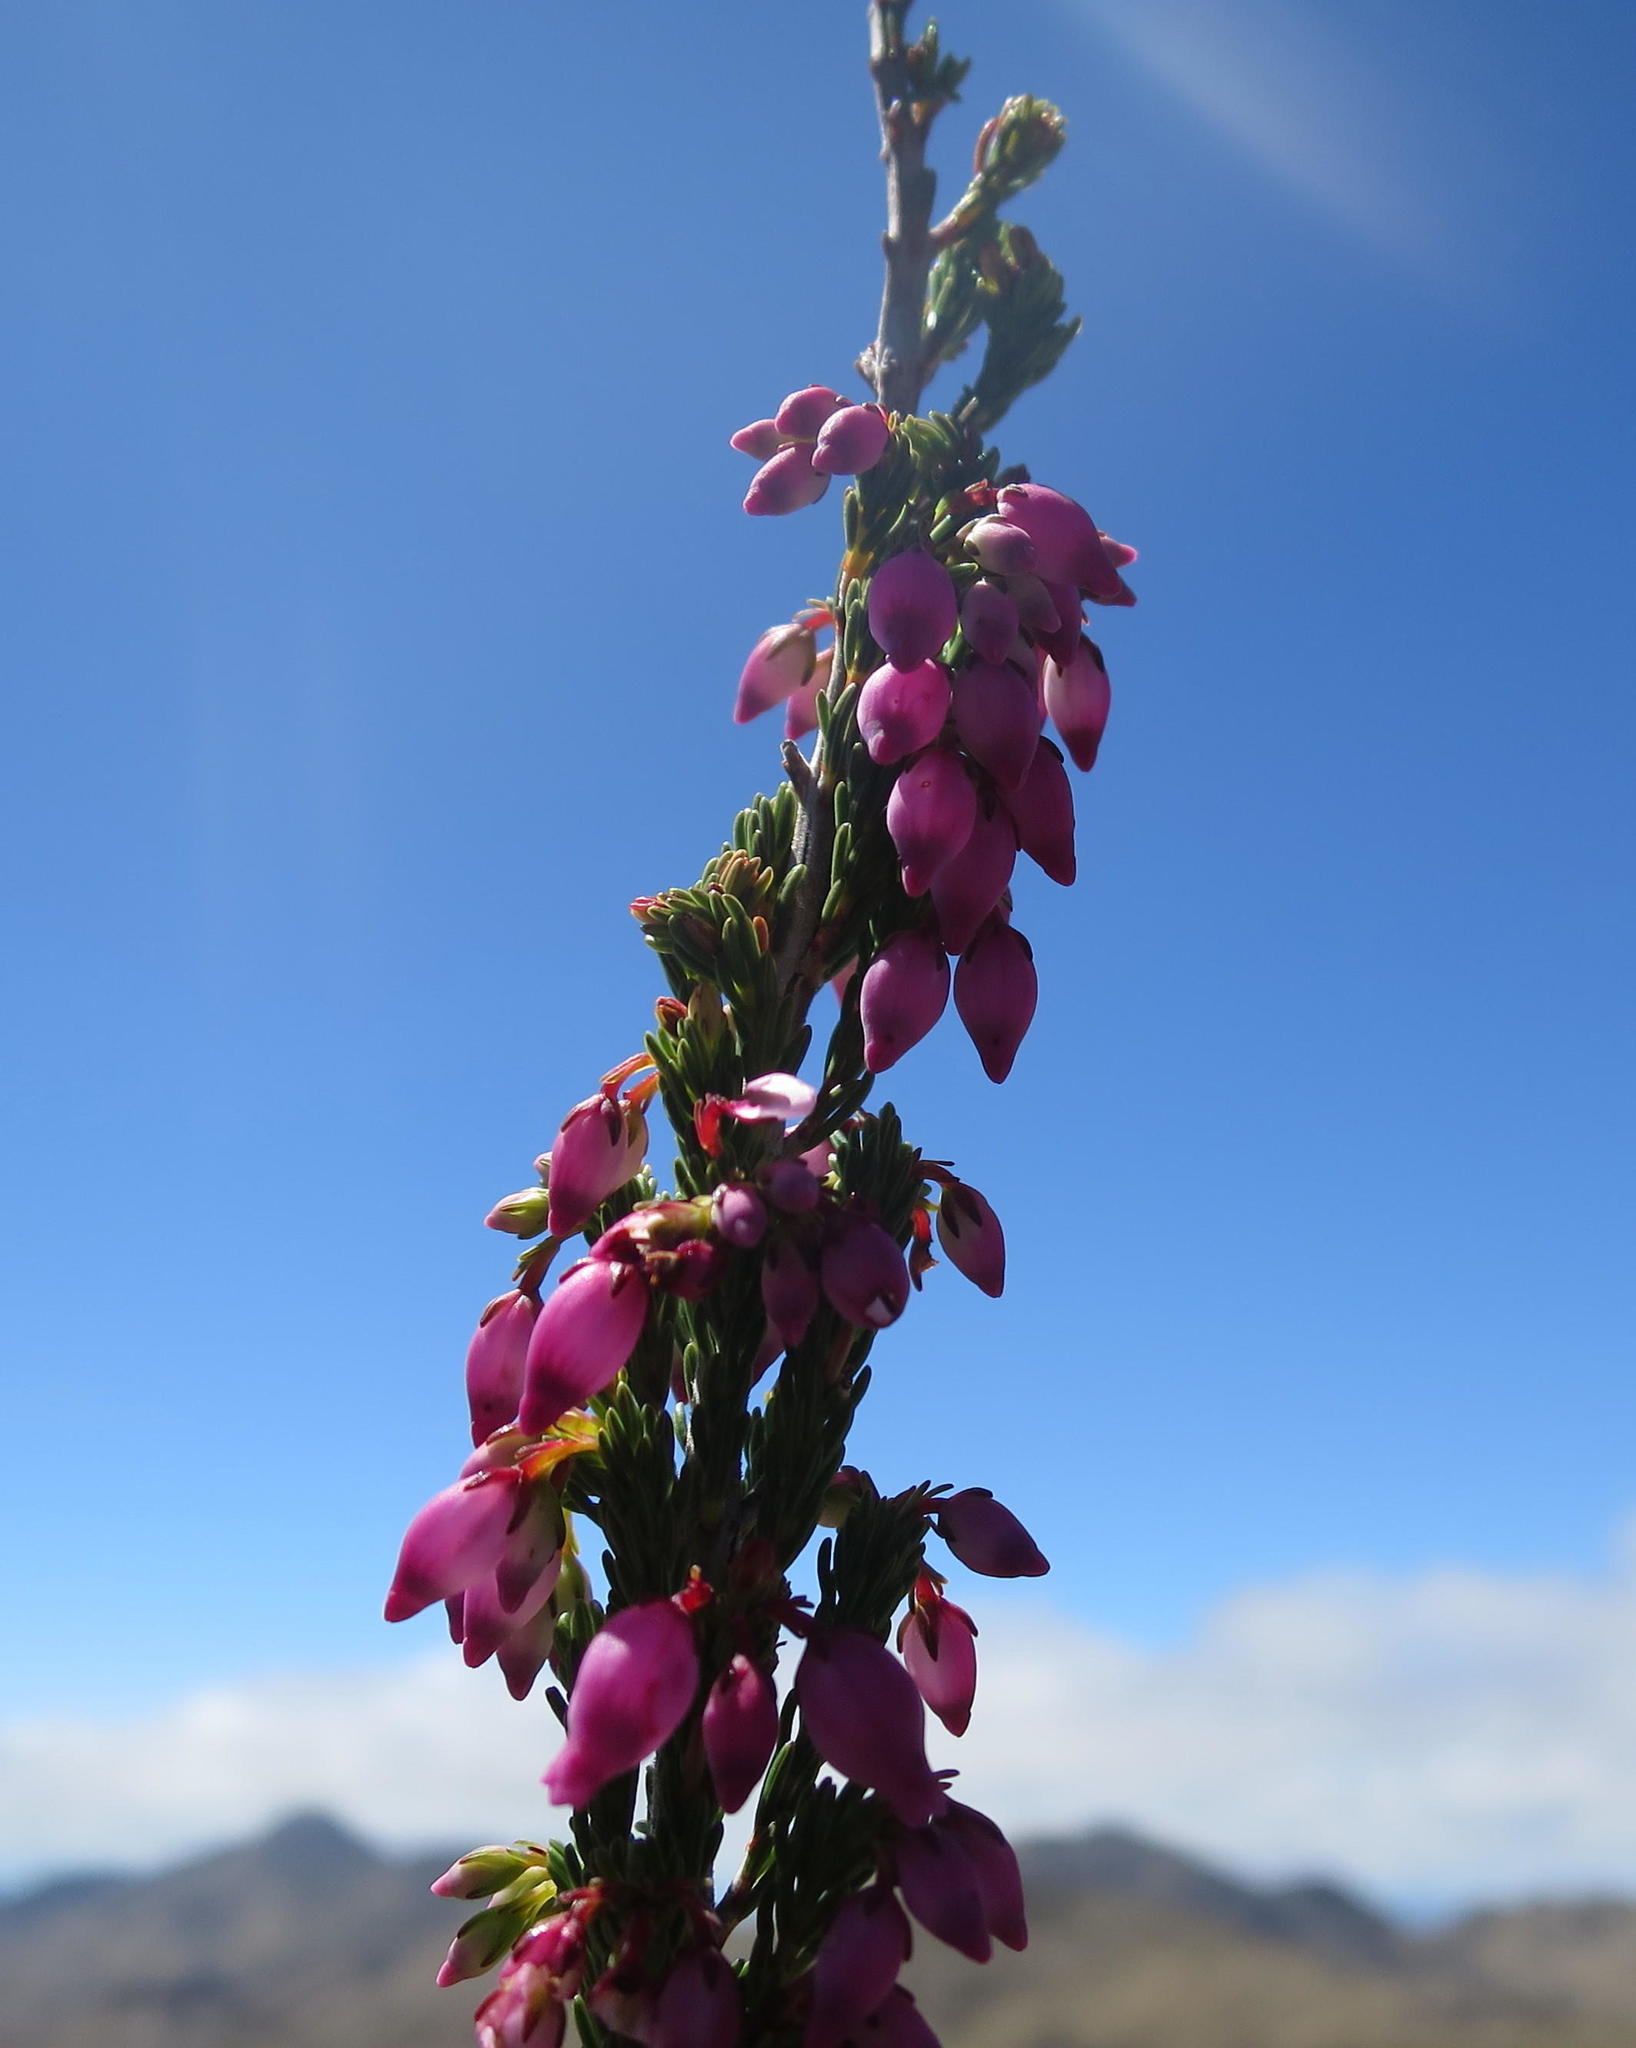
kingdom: Plantae
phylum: Tracheophyta
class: Magnoliopsida
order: Ericales
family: Ericaceae
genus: Erica
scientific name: Erica toringbergensis
